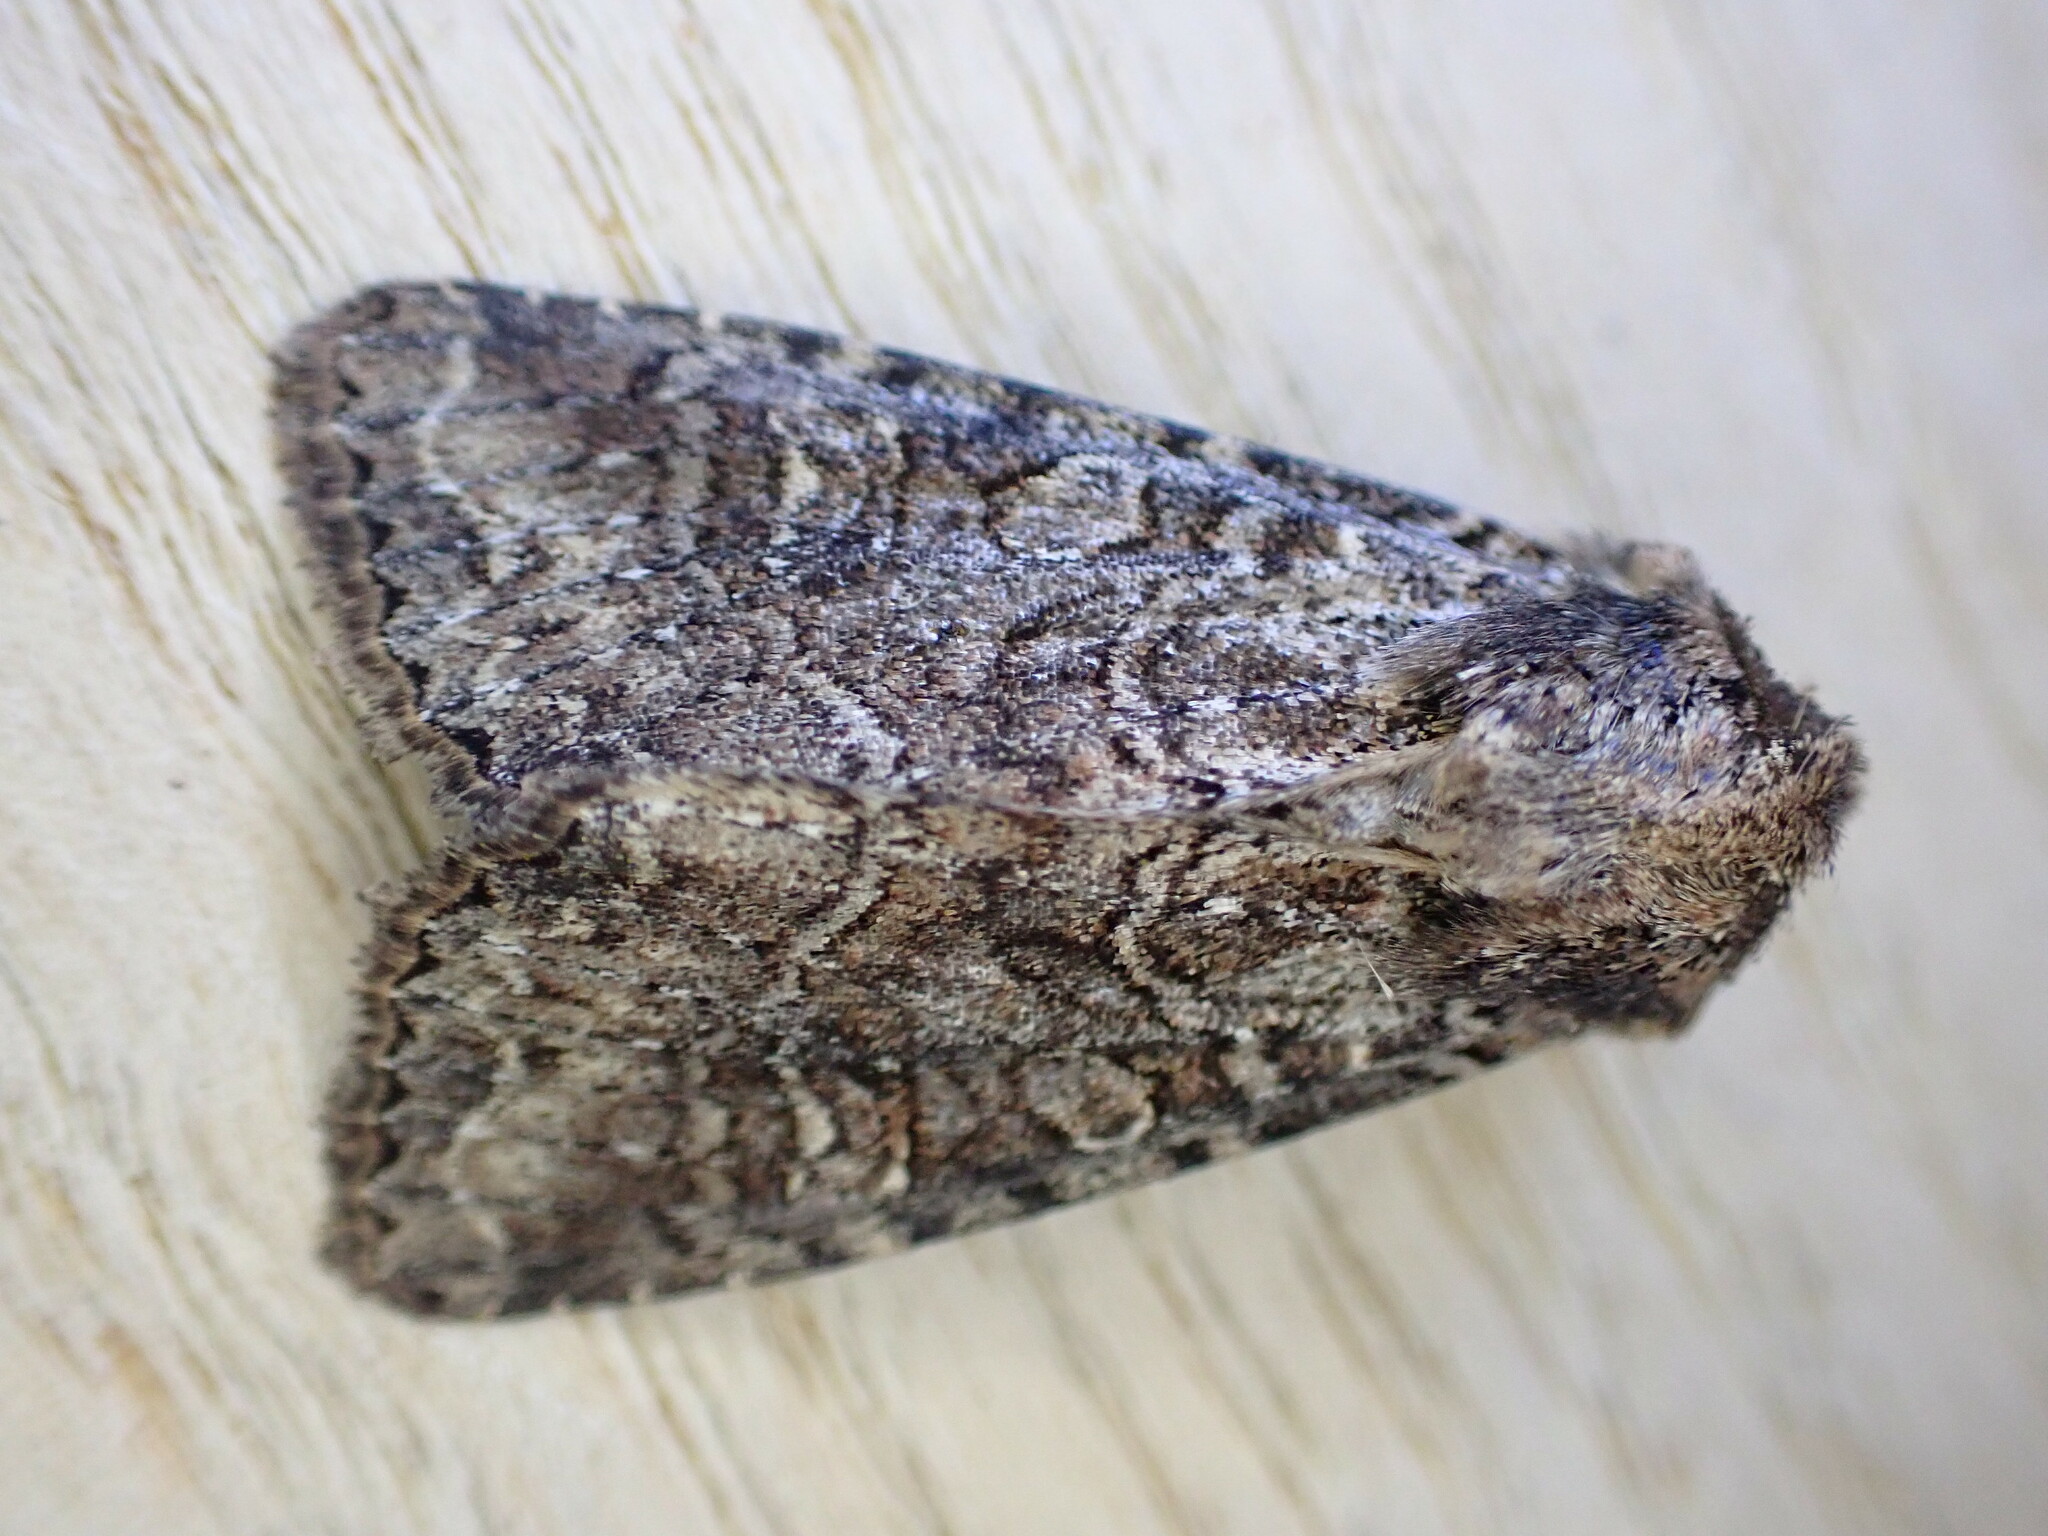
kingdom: Animalia
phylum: Arthropoda
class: Insecta
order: Lepidoptera
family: Noctuidae
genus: Apamea
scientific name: Apamea remissa
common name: Dusky brocade
